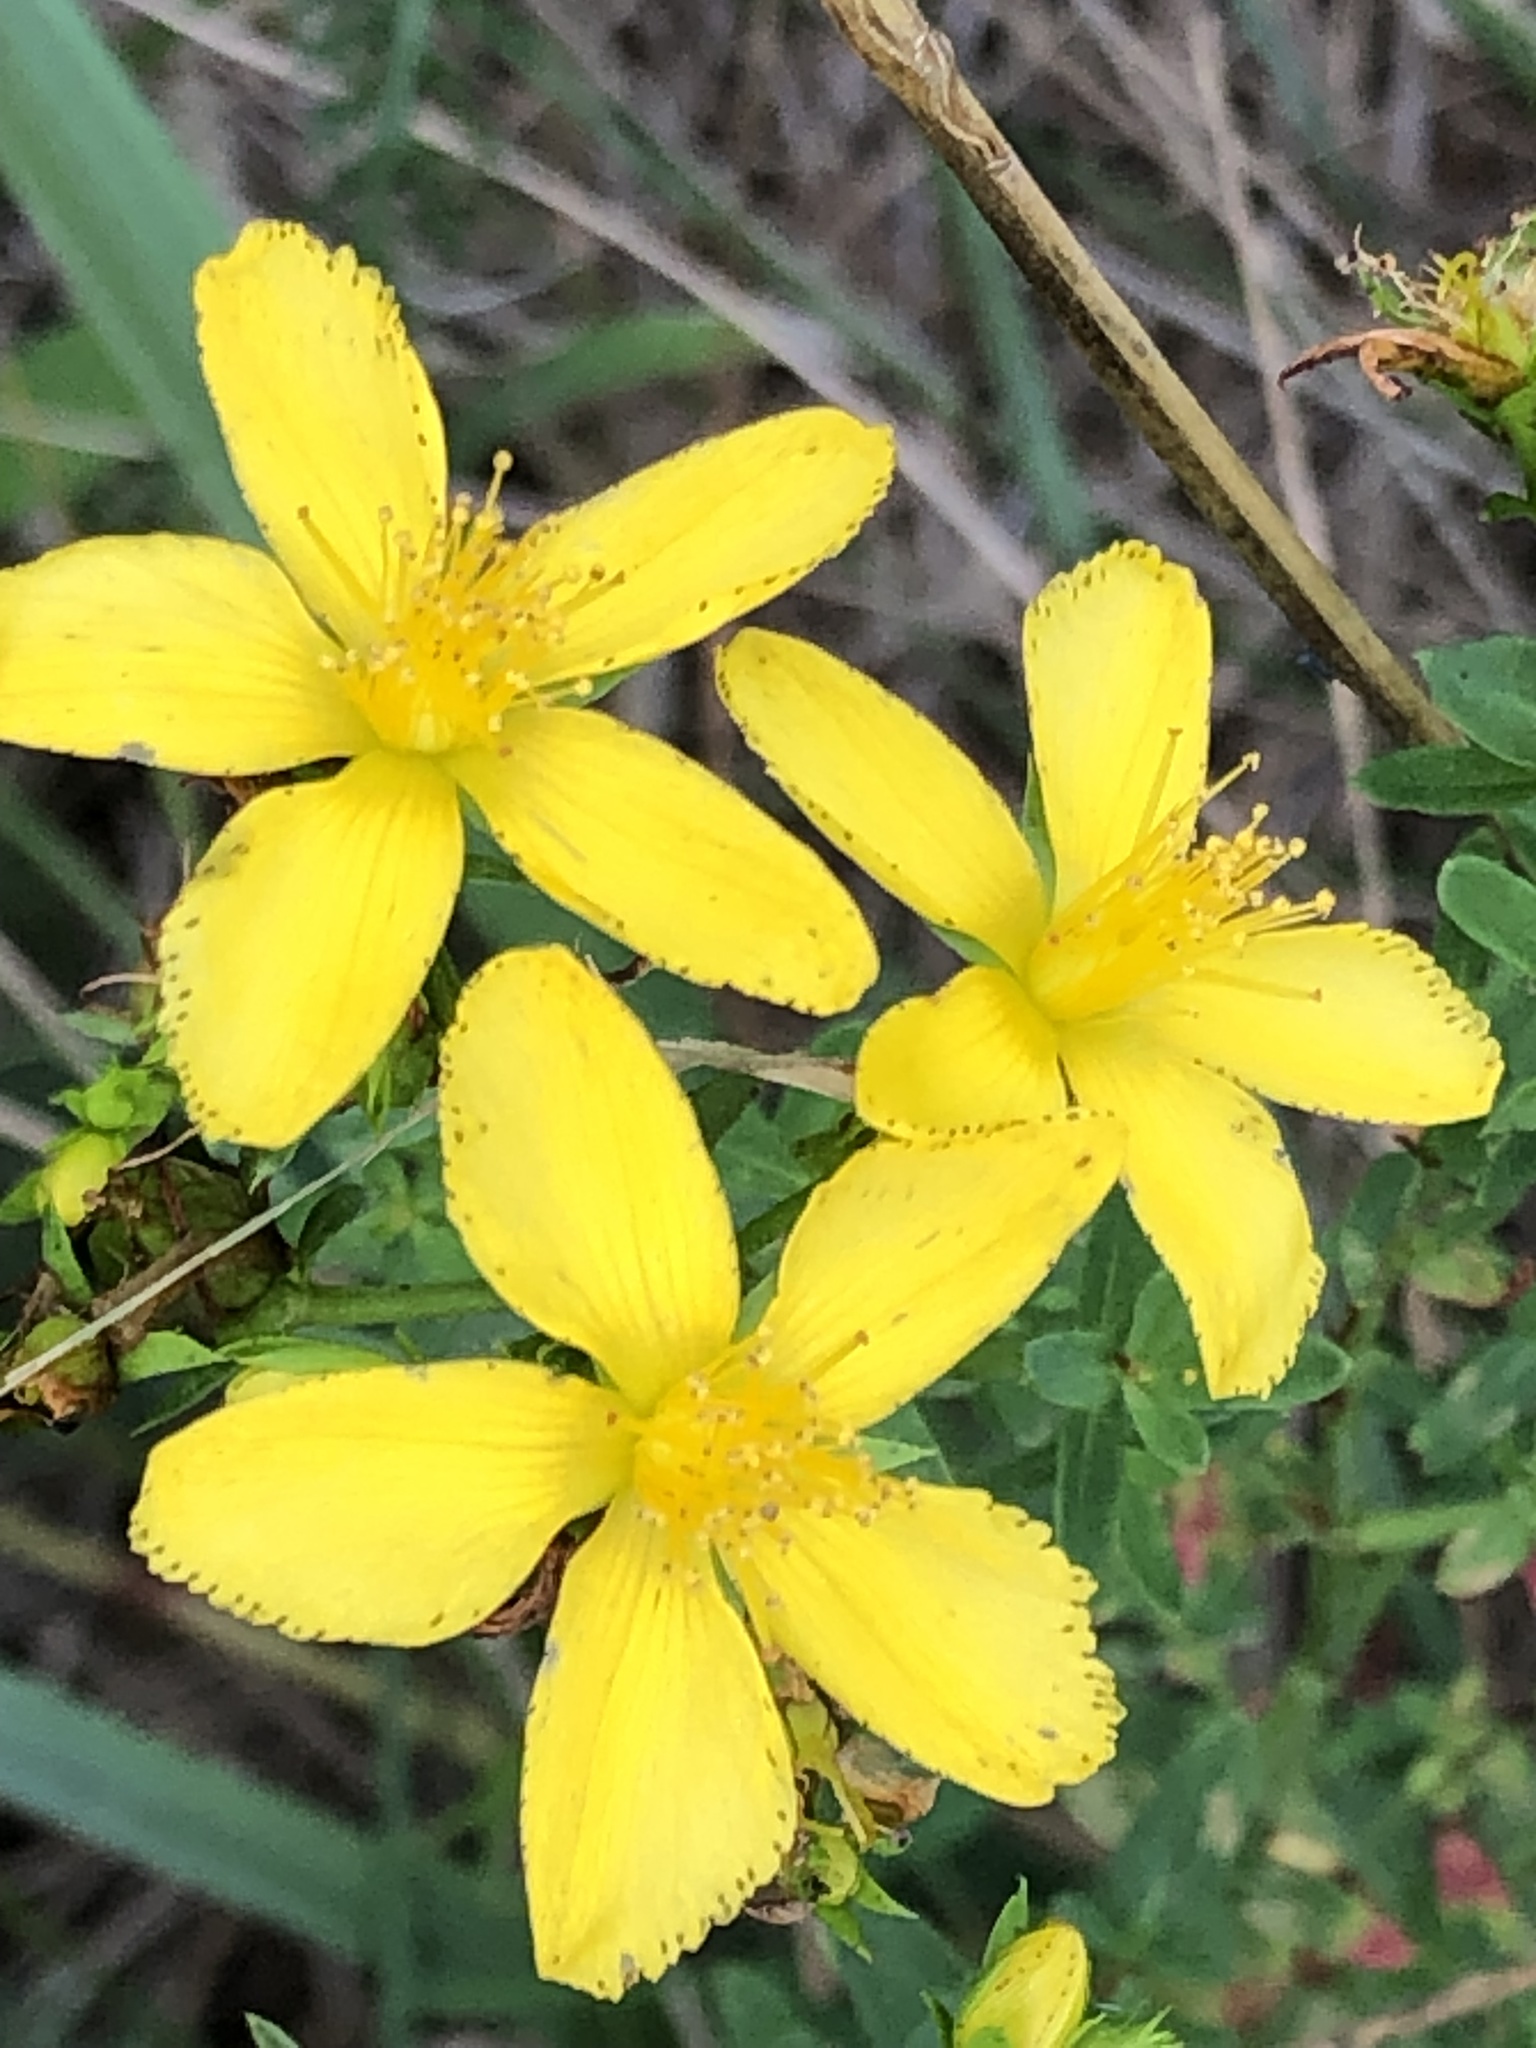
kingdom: Plantae
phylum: Tracheophyta
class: Magnoliopsida
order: Malpighiales
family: Hypericaceae
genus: Hypericum
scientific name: Hypericum perforatum
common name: Common st. johnswort
